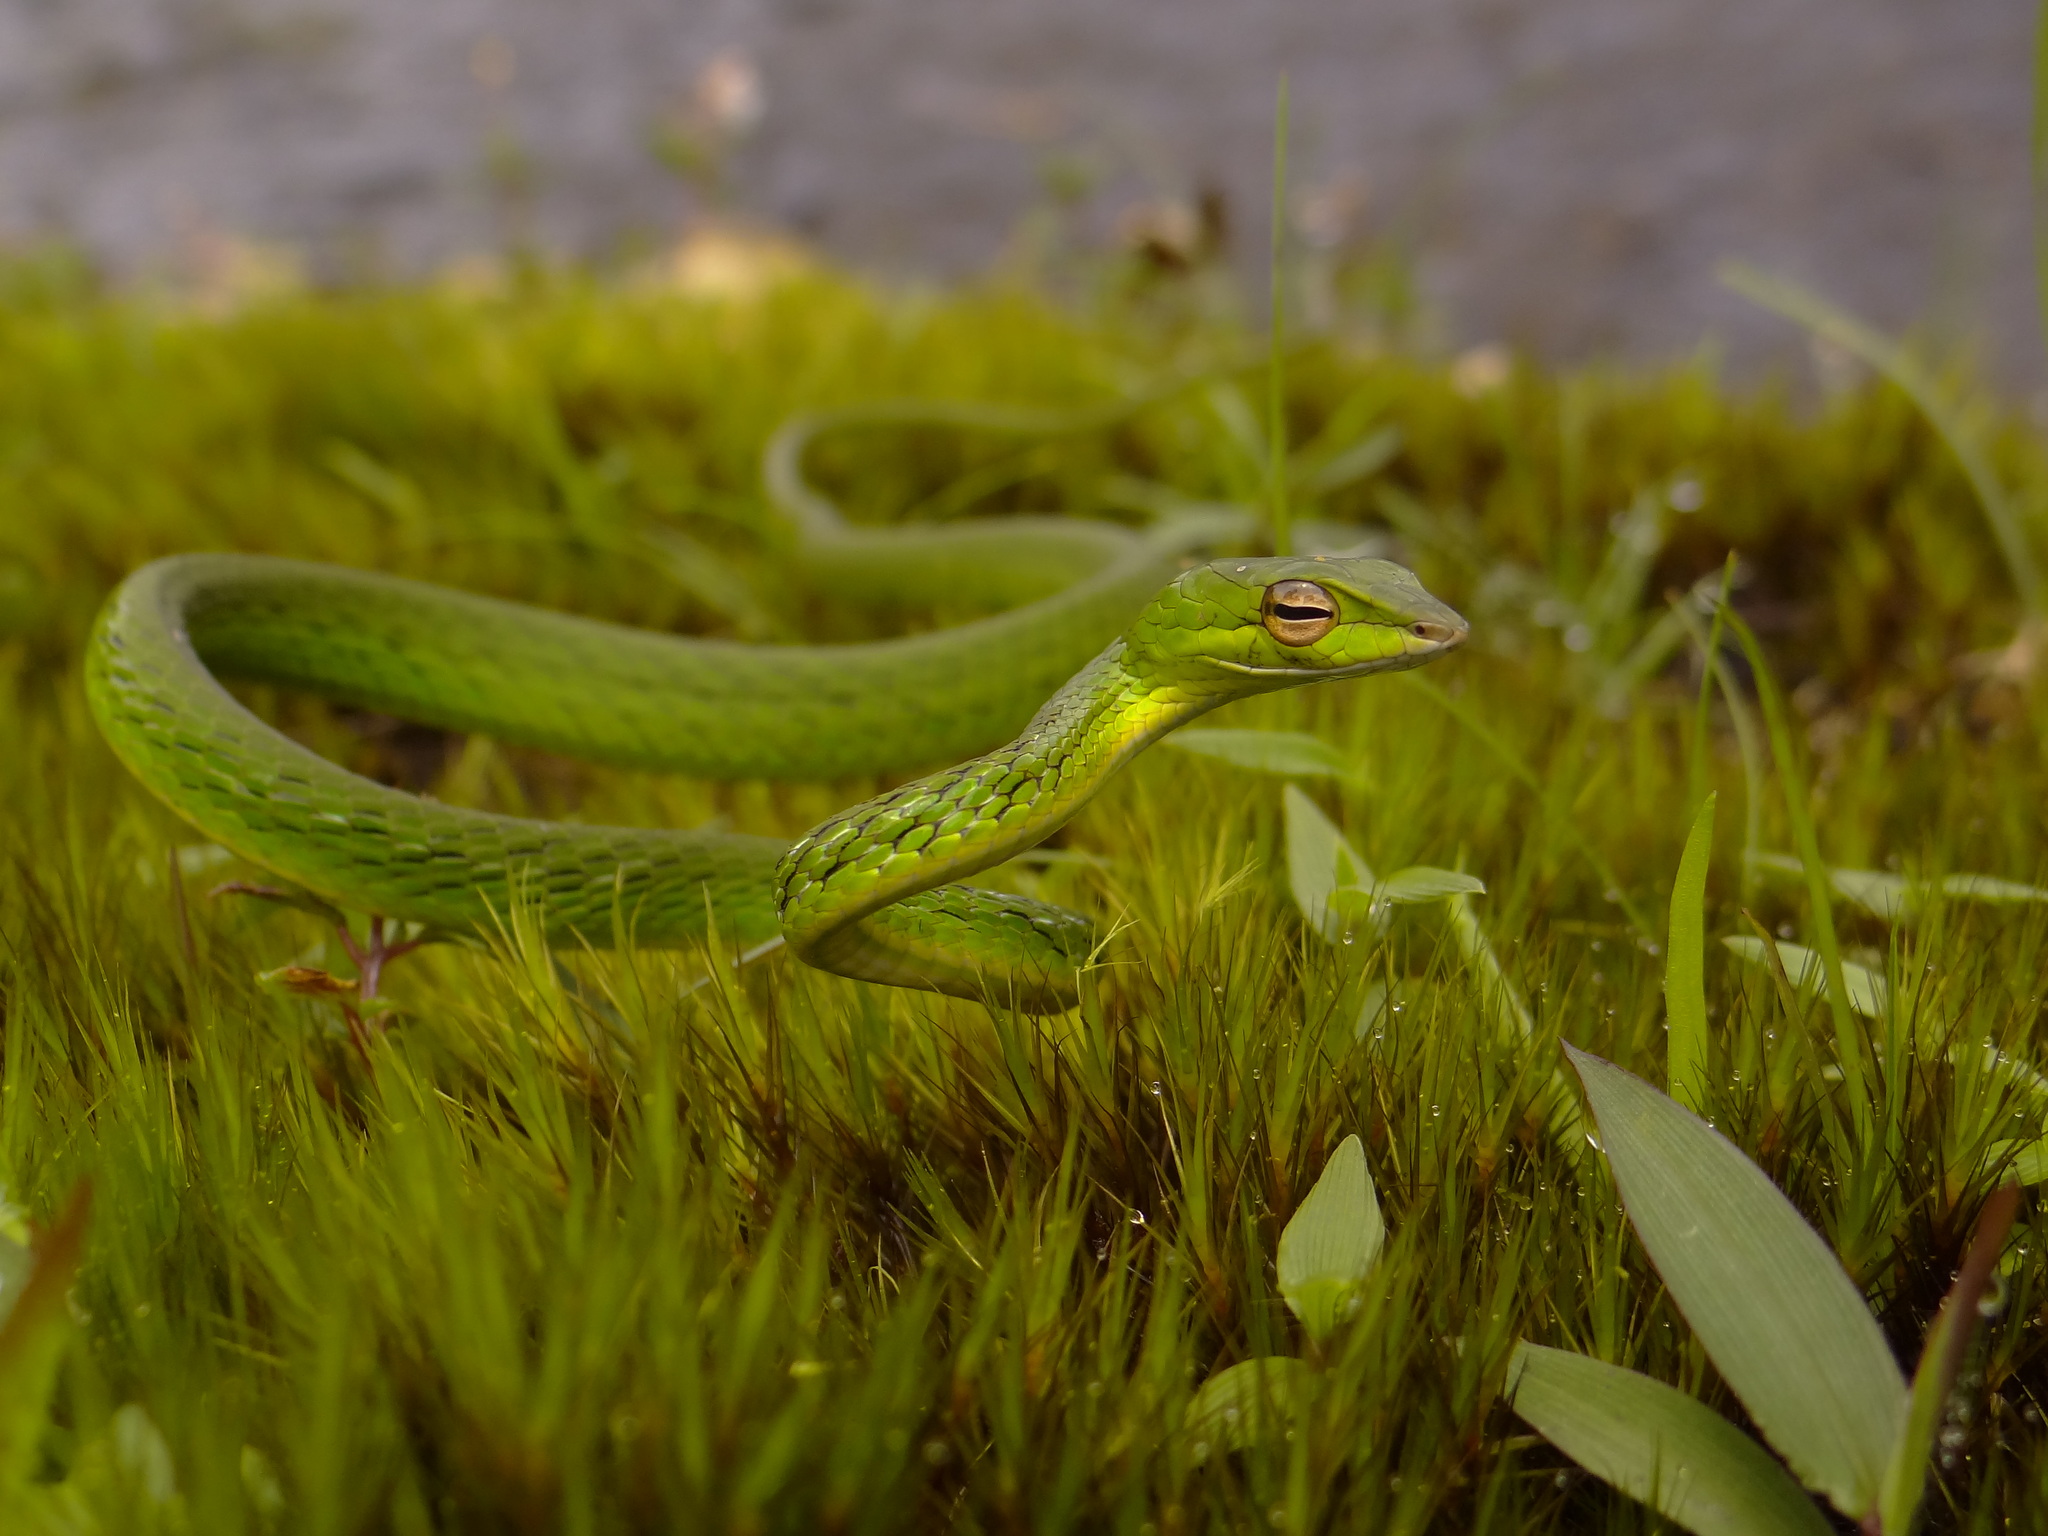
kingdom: Animalia
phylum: Chordata
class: Squamata
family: Colubridae
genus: Ahaetulla
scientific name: Ahaetulla dispar
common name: Günther's vine snake
